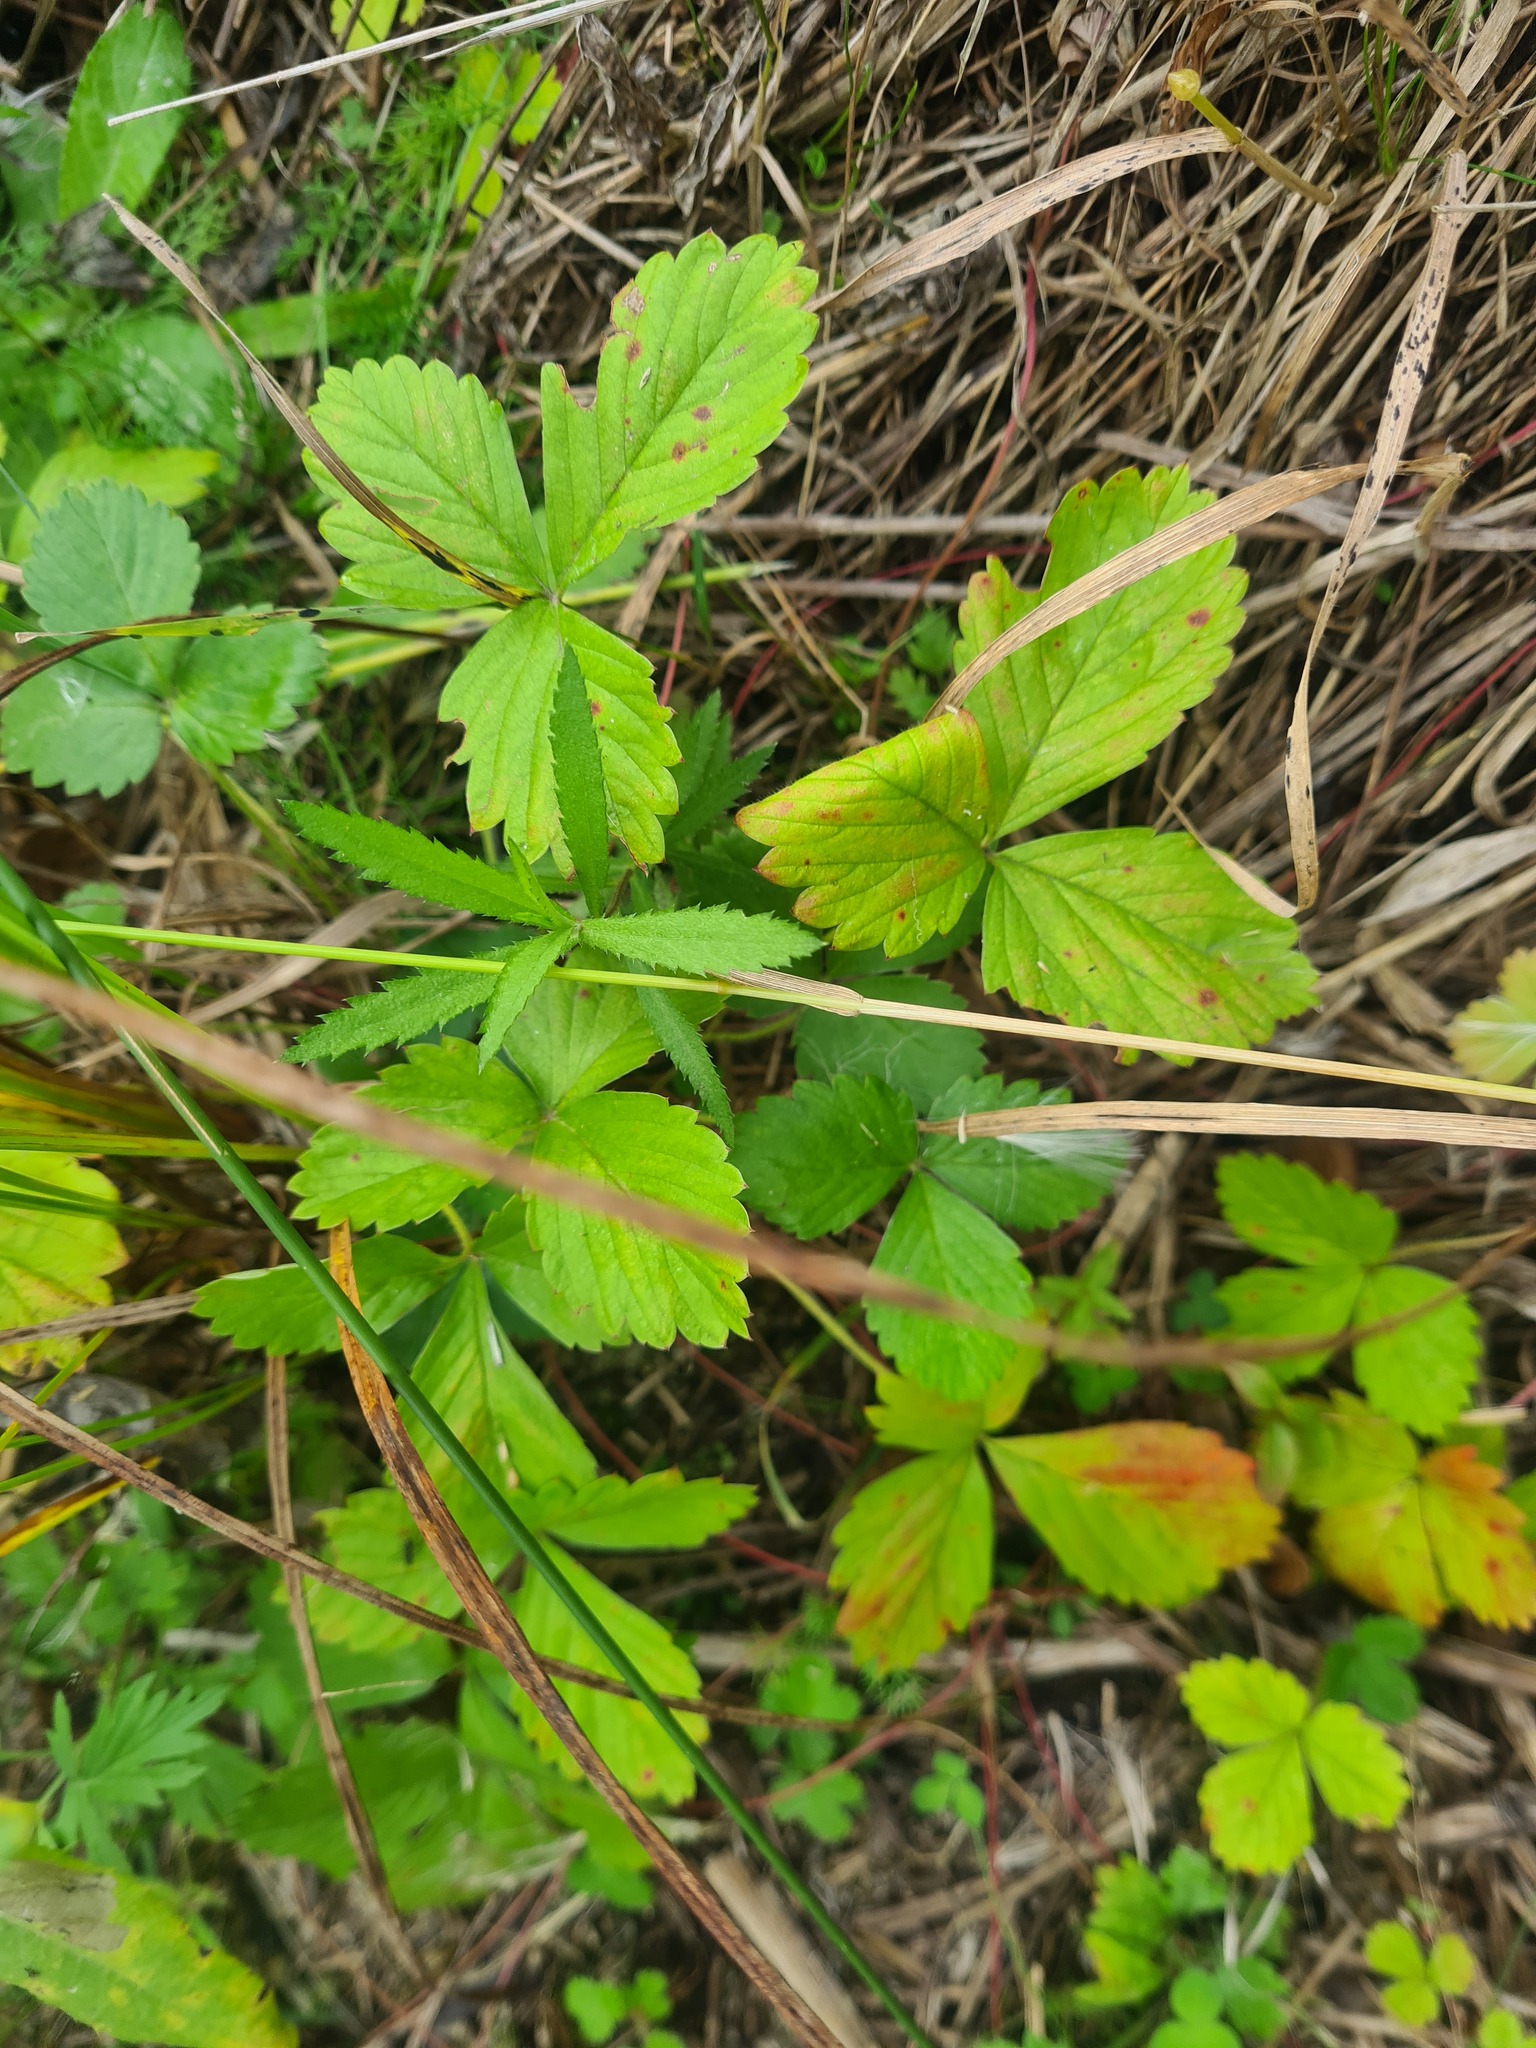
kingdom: Plantae
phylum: Tracheophyta
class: Magnoliopsida
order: Rosales
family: Rosaceae
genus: Fragaria
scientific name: Fragaria vesca
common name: Wild strawberry
